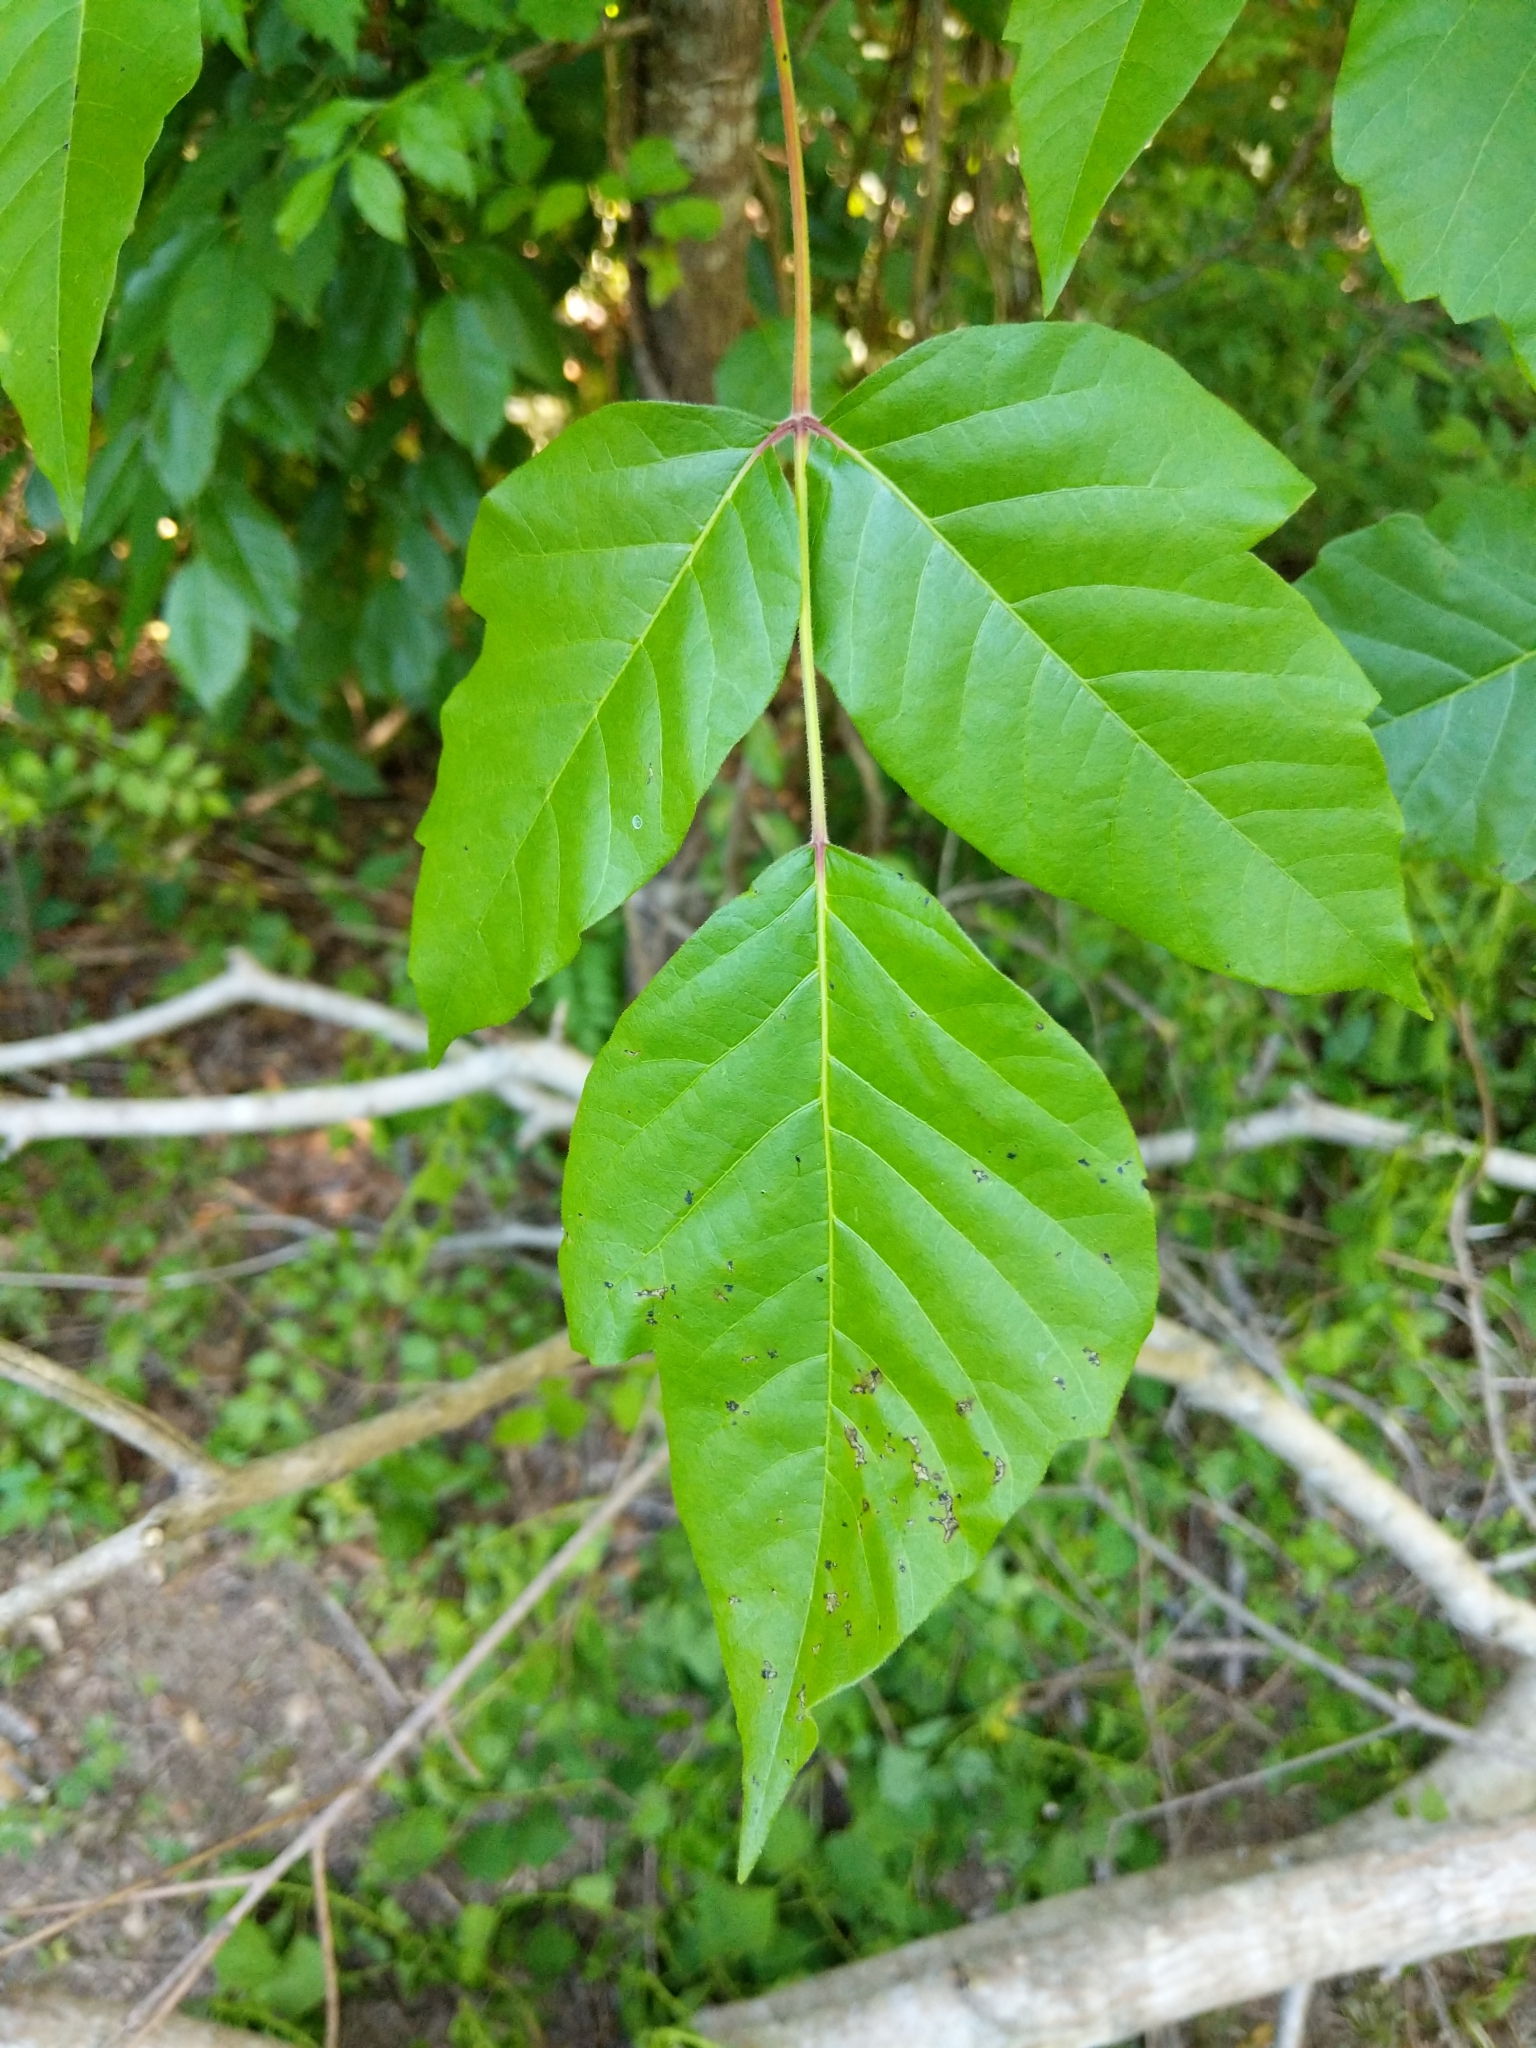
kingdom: Plantae
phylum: Tracheophyta
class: Magnoliopsida
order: Sapindales
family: Anacardiaceae
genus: Toxicodendron
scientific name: Toxicodendron radicans
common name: Poison ivy
